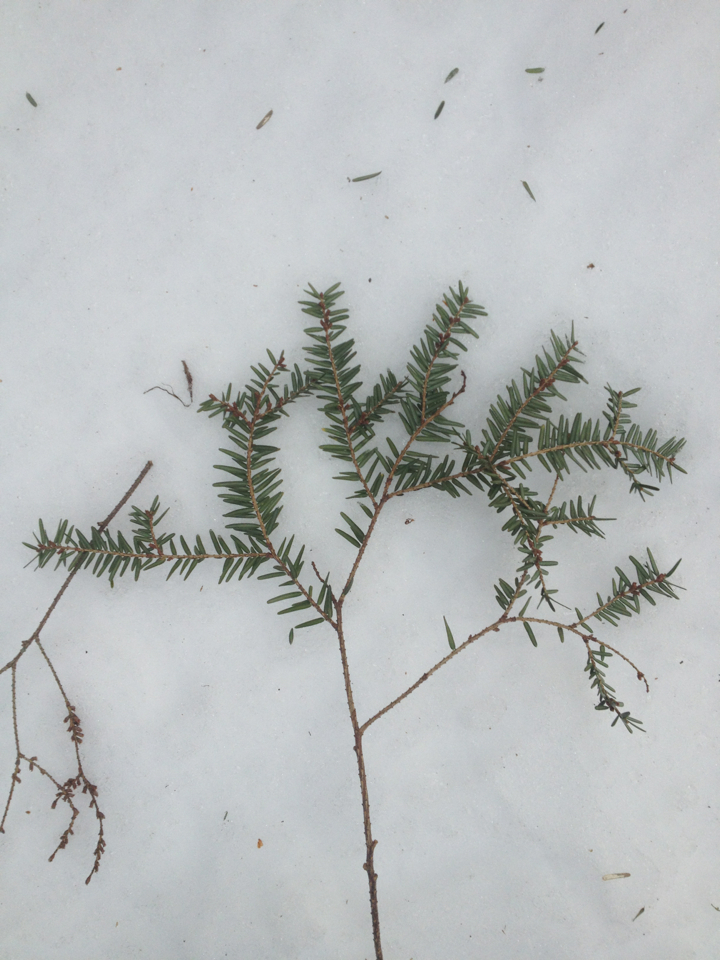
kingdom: Plantae
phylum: Tracheophyta
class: Pinopsida
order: Pinales
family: Pinaceae
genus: Tsuga
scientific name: Tsuga canadensis
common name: Eastern hemlock
